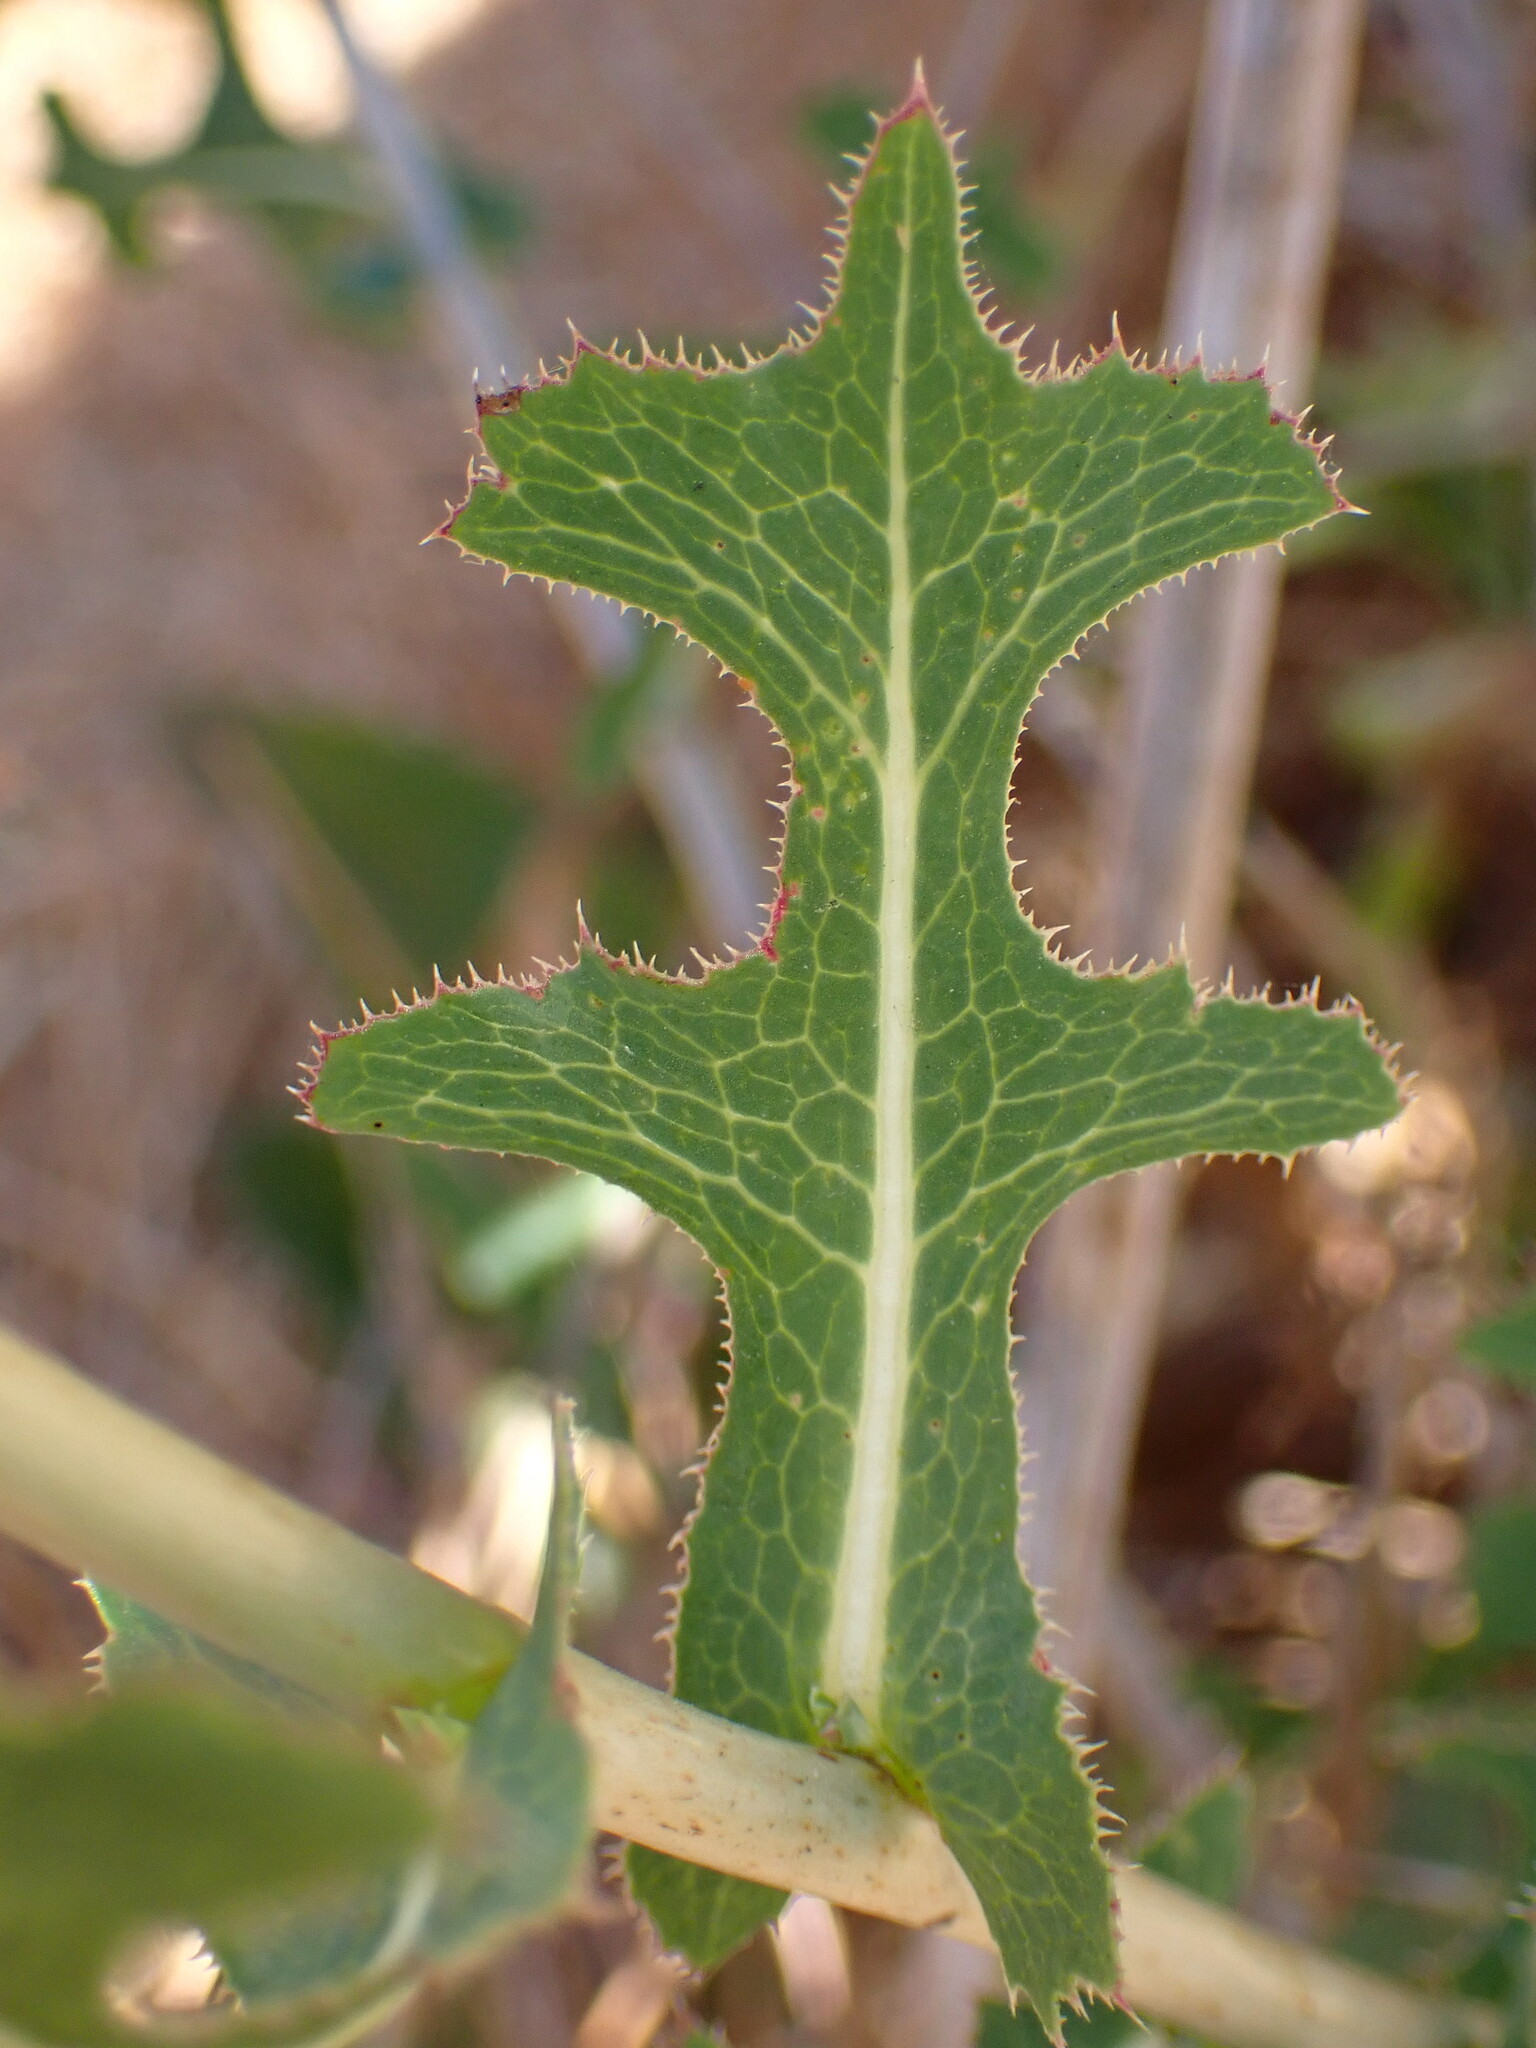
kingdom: Plantae
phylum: Tracheophyta
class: Magnoliopsida
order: Asterales
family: Asteraceae
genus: Lactuca
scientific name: Lactuca serriola
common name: Prickly lettuce
